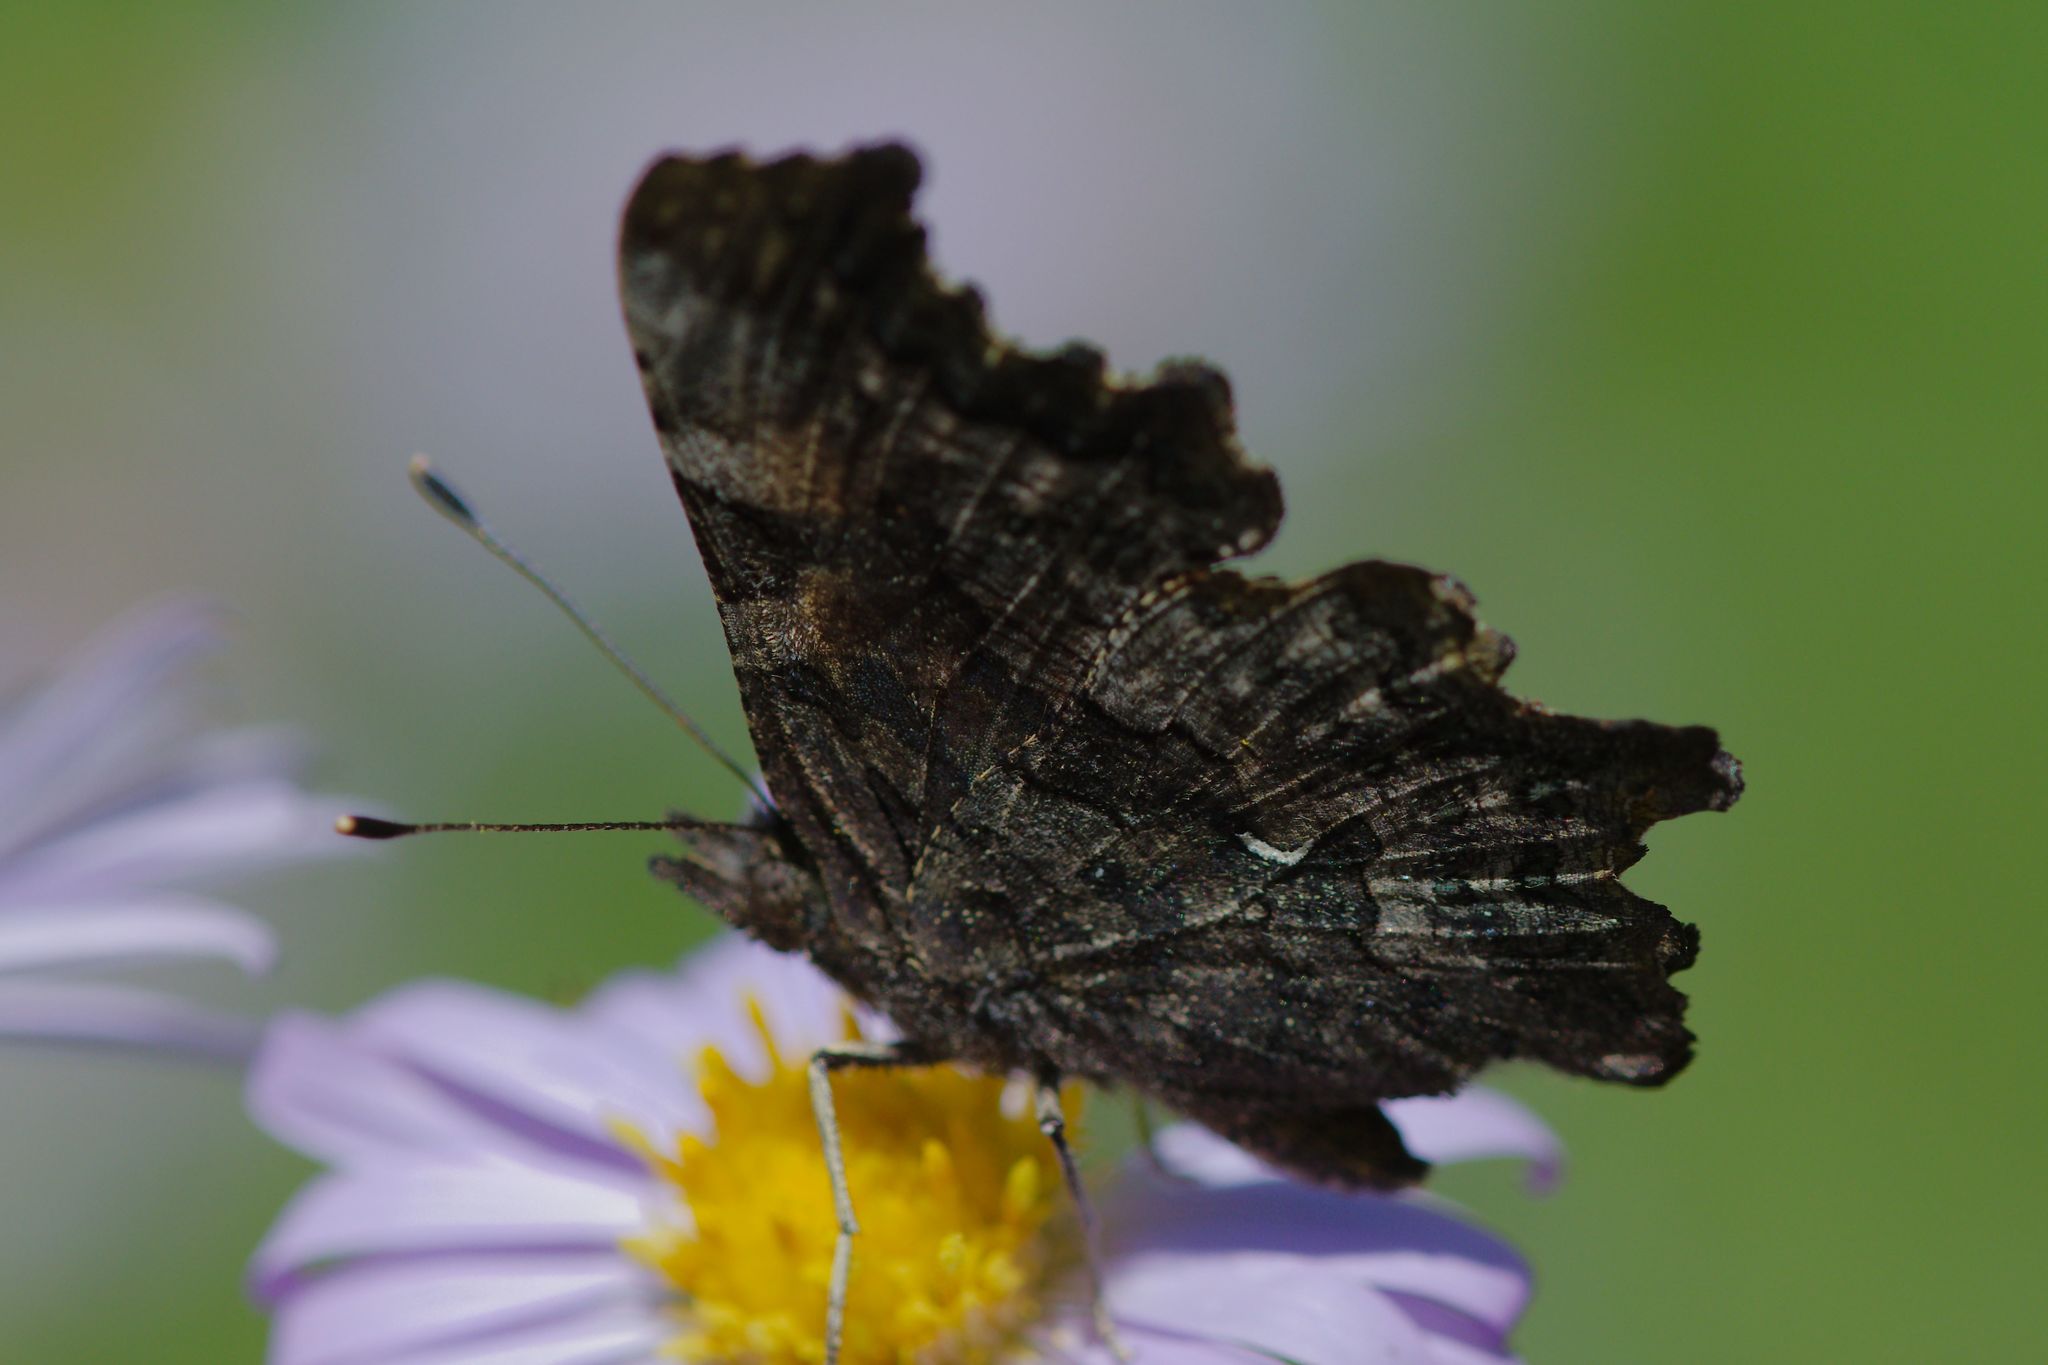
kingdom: Animalia
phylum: Arthropoda
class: Insecta
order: Lepidoptera
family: Nymphalidae
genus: Polygonia
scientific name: Polygonia faunus
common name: Green comma
